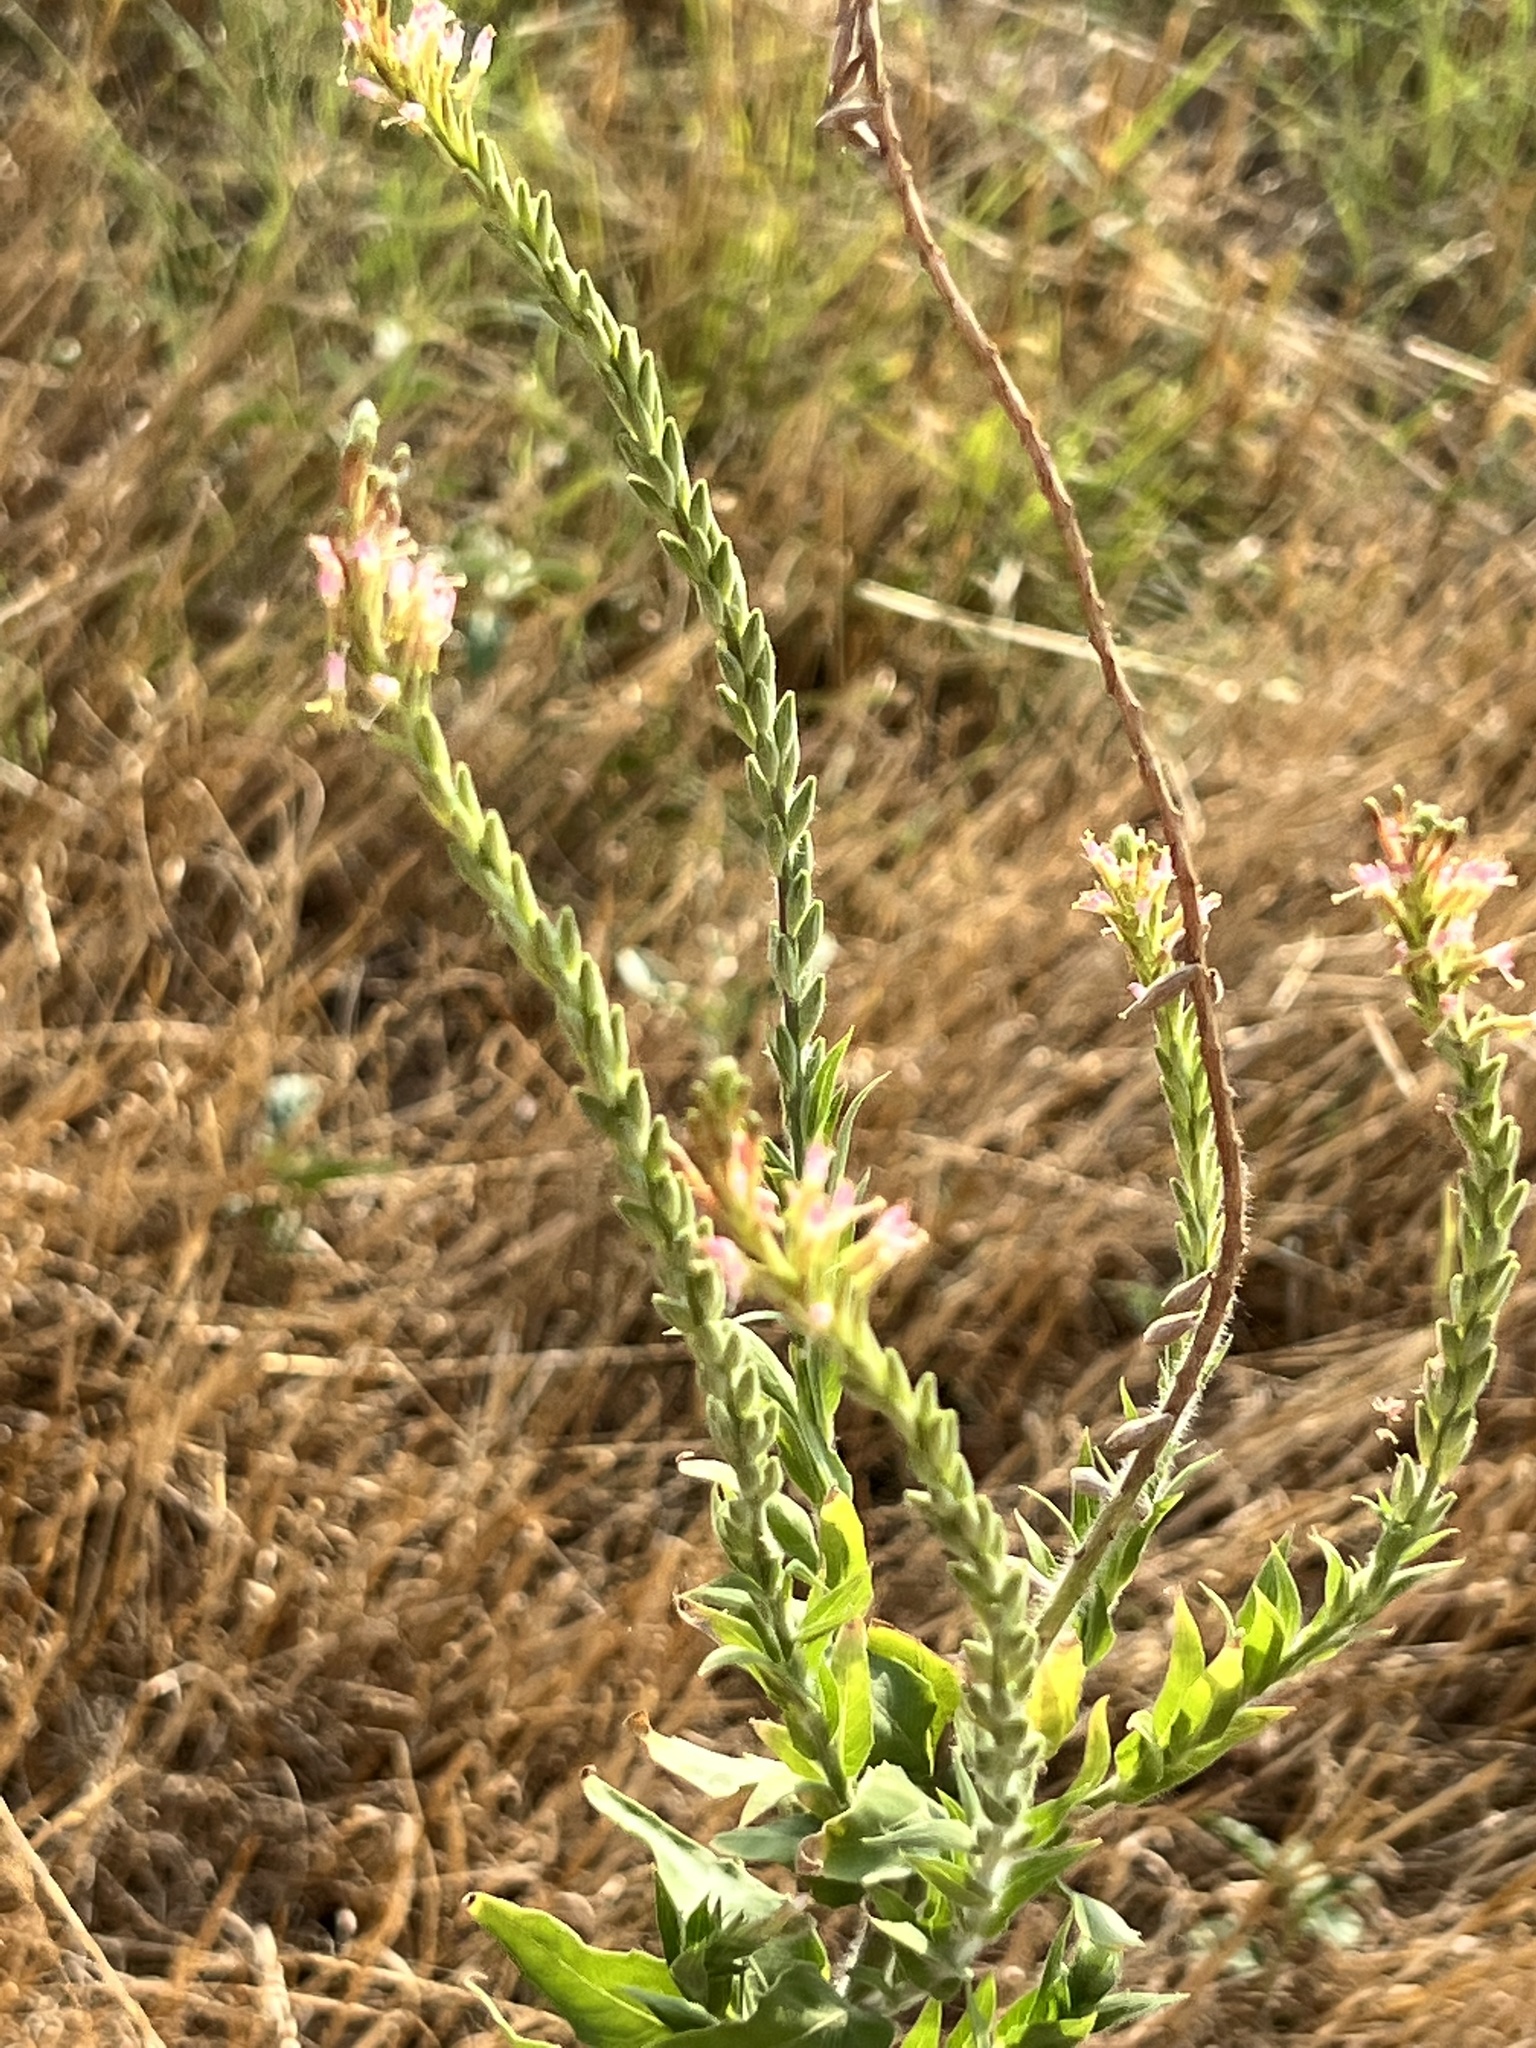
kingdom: Plantae
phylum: Tracheophyta
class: Magnoliopsida
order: Myrtales
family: Onagraceae
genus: Oenothera
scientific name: Oenothera curtiflora
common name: Velvetweed
